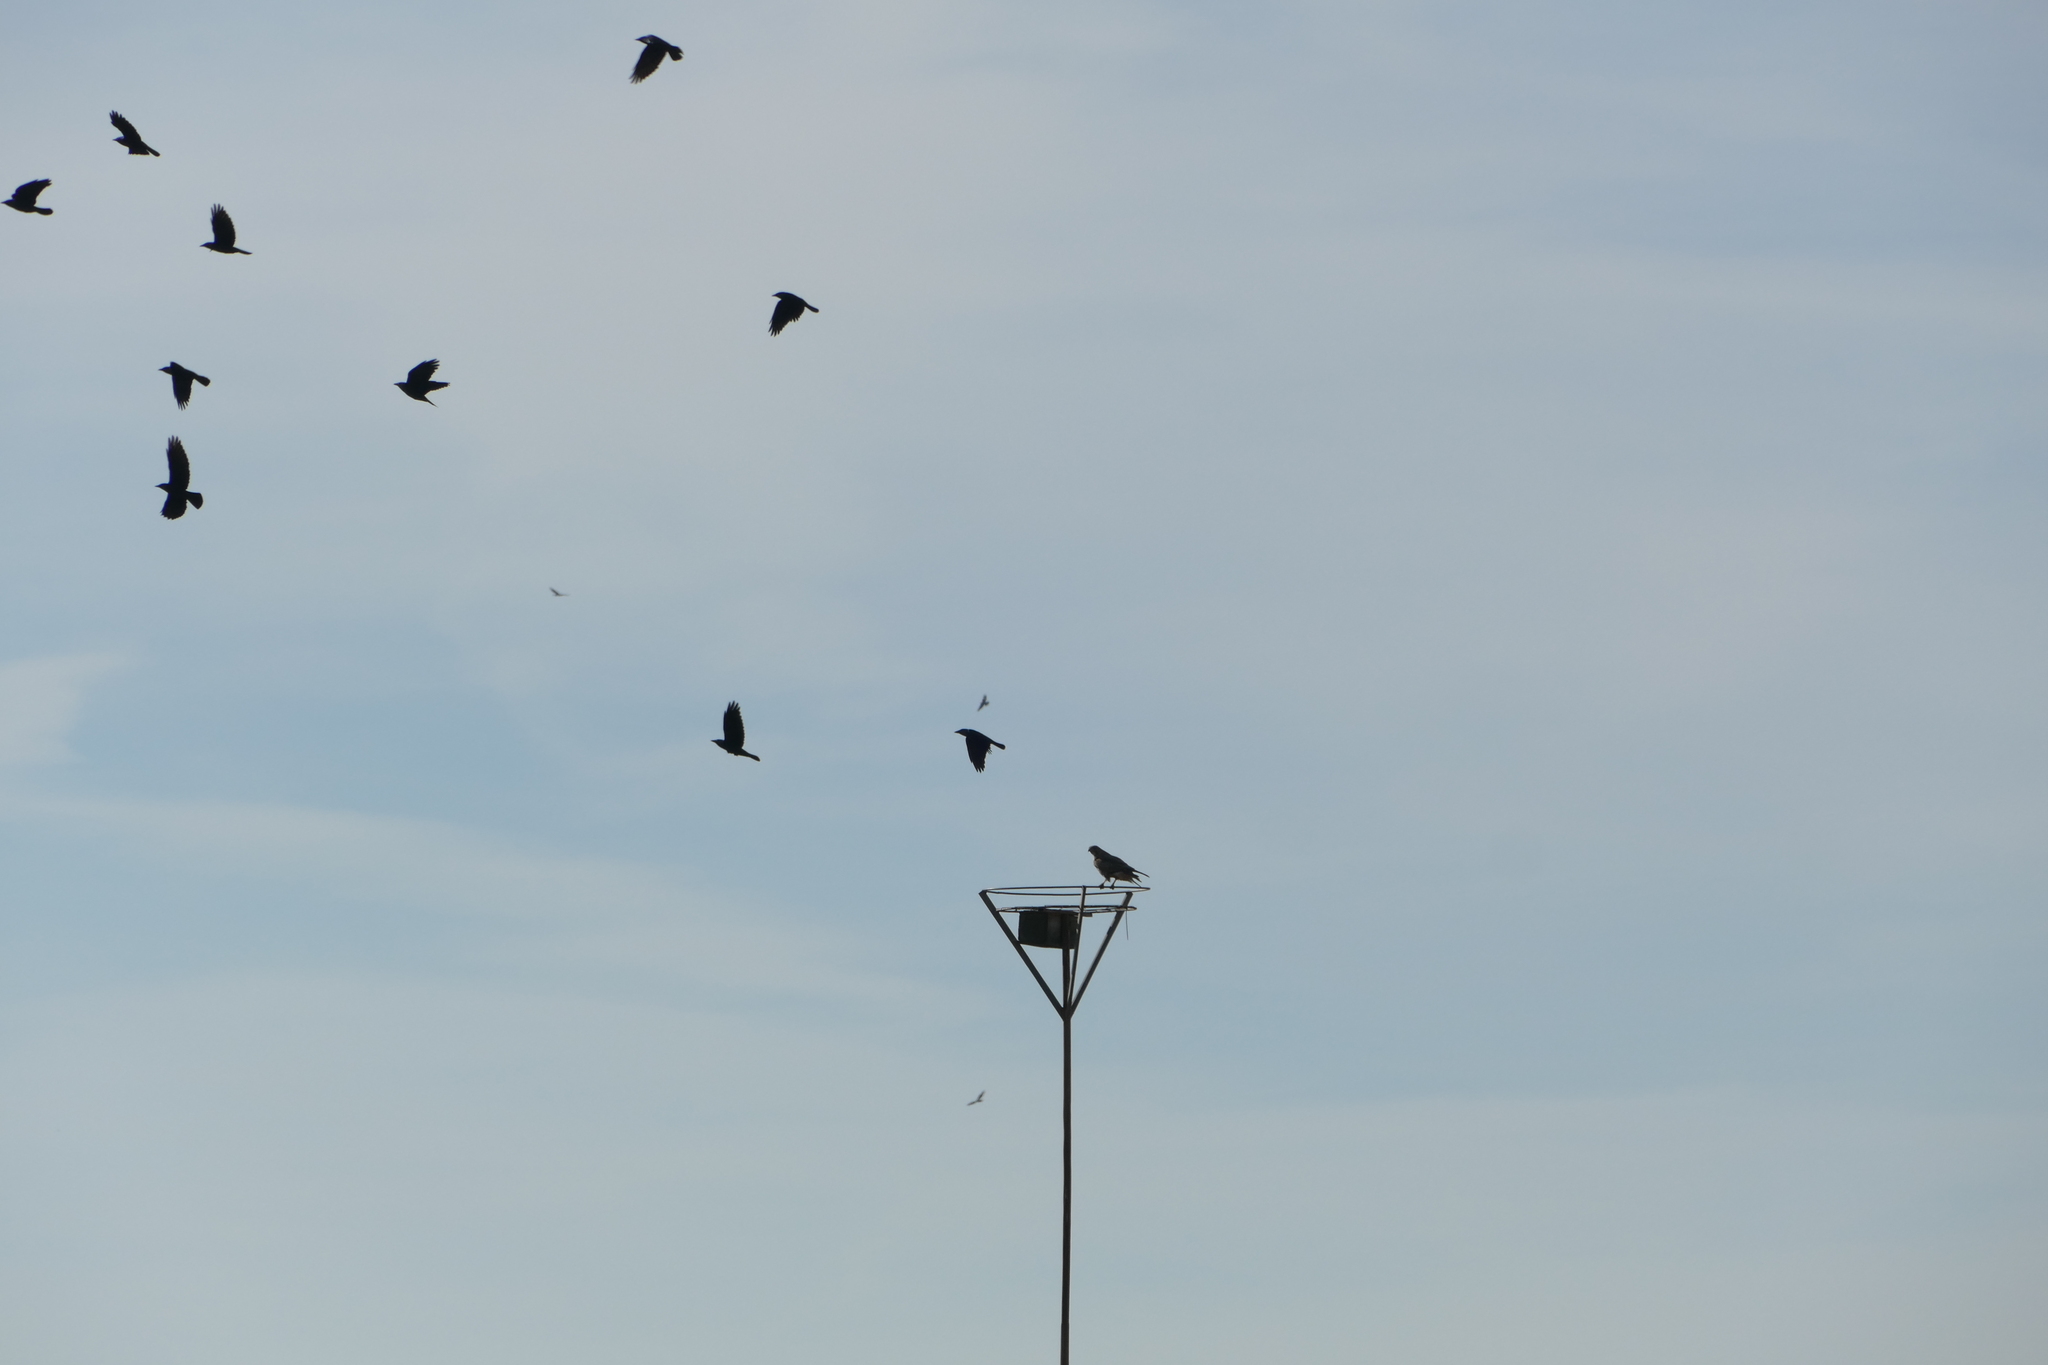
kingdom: Animalia
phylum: Chordata
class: Aves
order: Passeriformes
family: Corvidae
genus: Coloeus
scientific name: Coloeus monedula
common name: Western jackdaw
